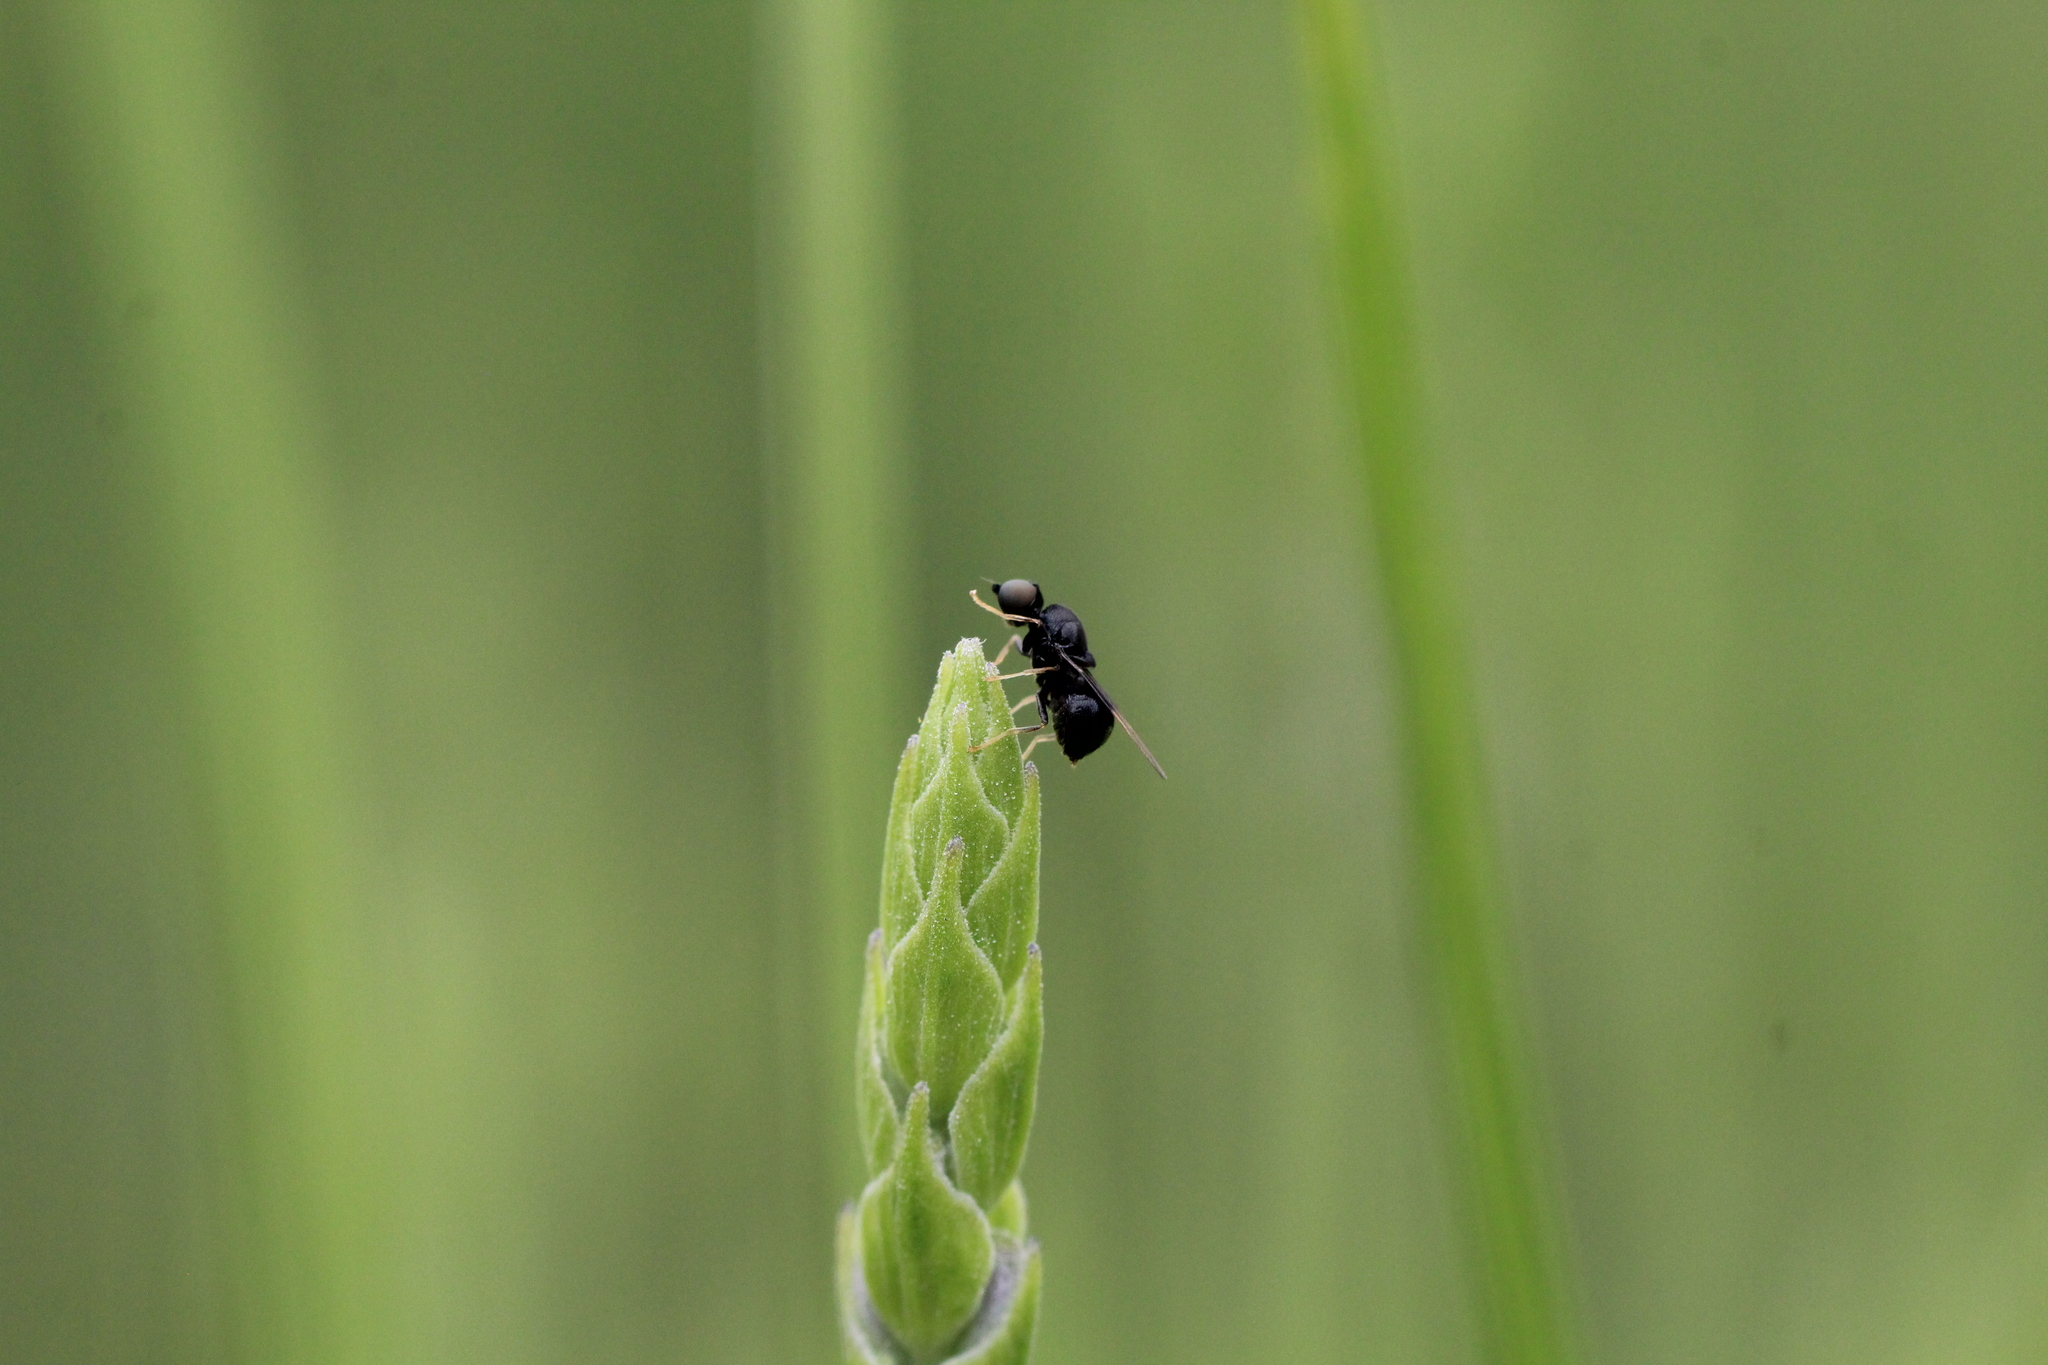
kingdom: Animalia
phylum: Arthropoda
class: Insecta
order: Diptera
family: Stratiomyidae
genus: Pachygaster
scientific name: Pachygaster atra
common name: Dark-winged black
